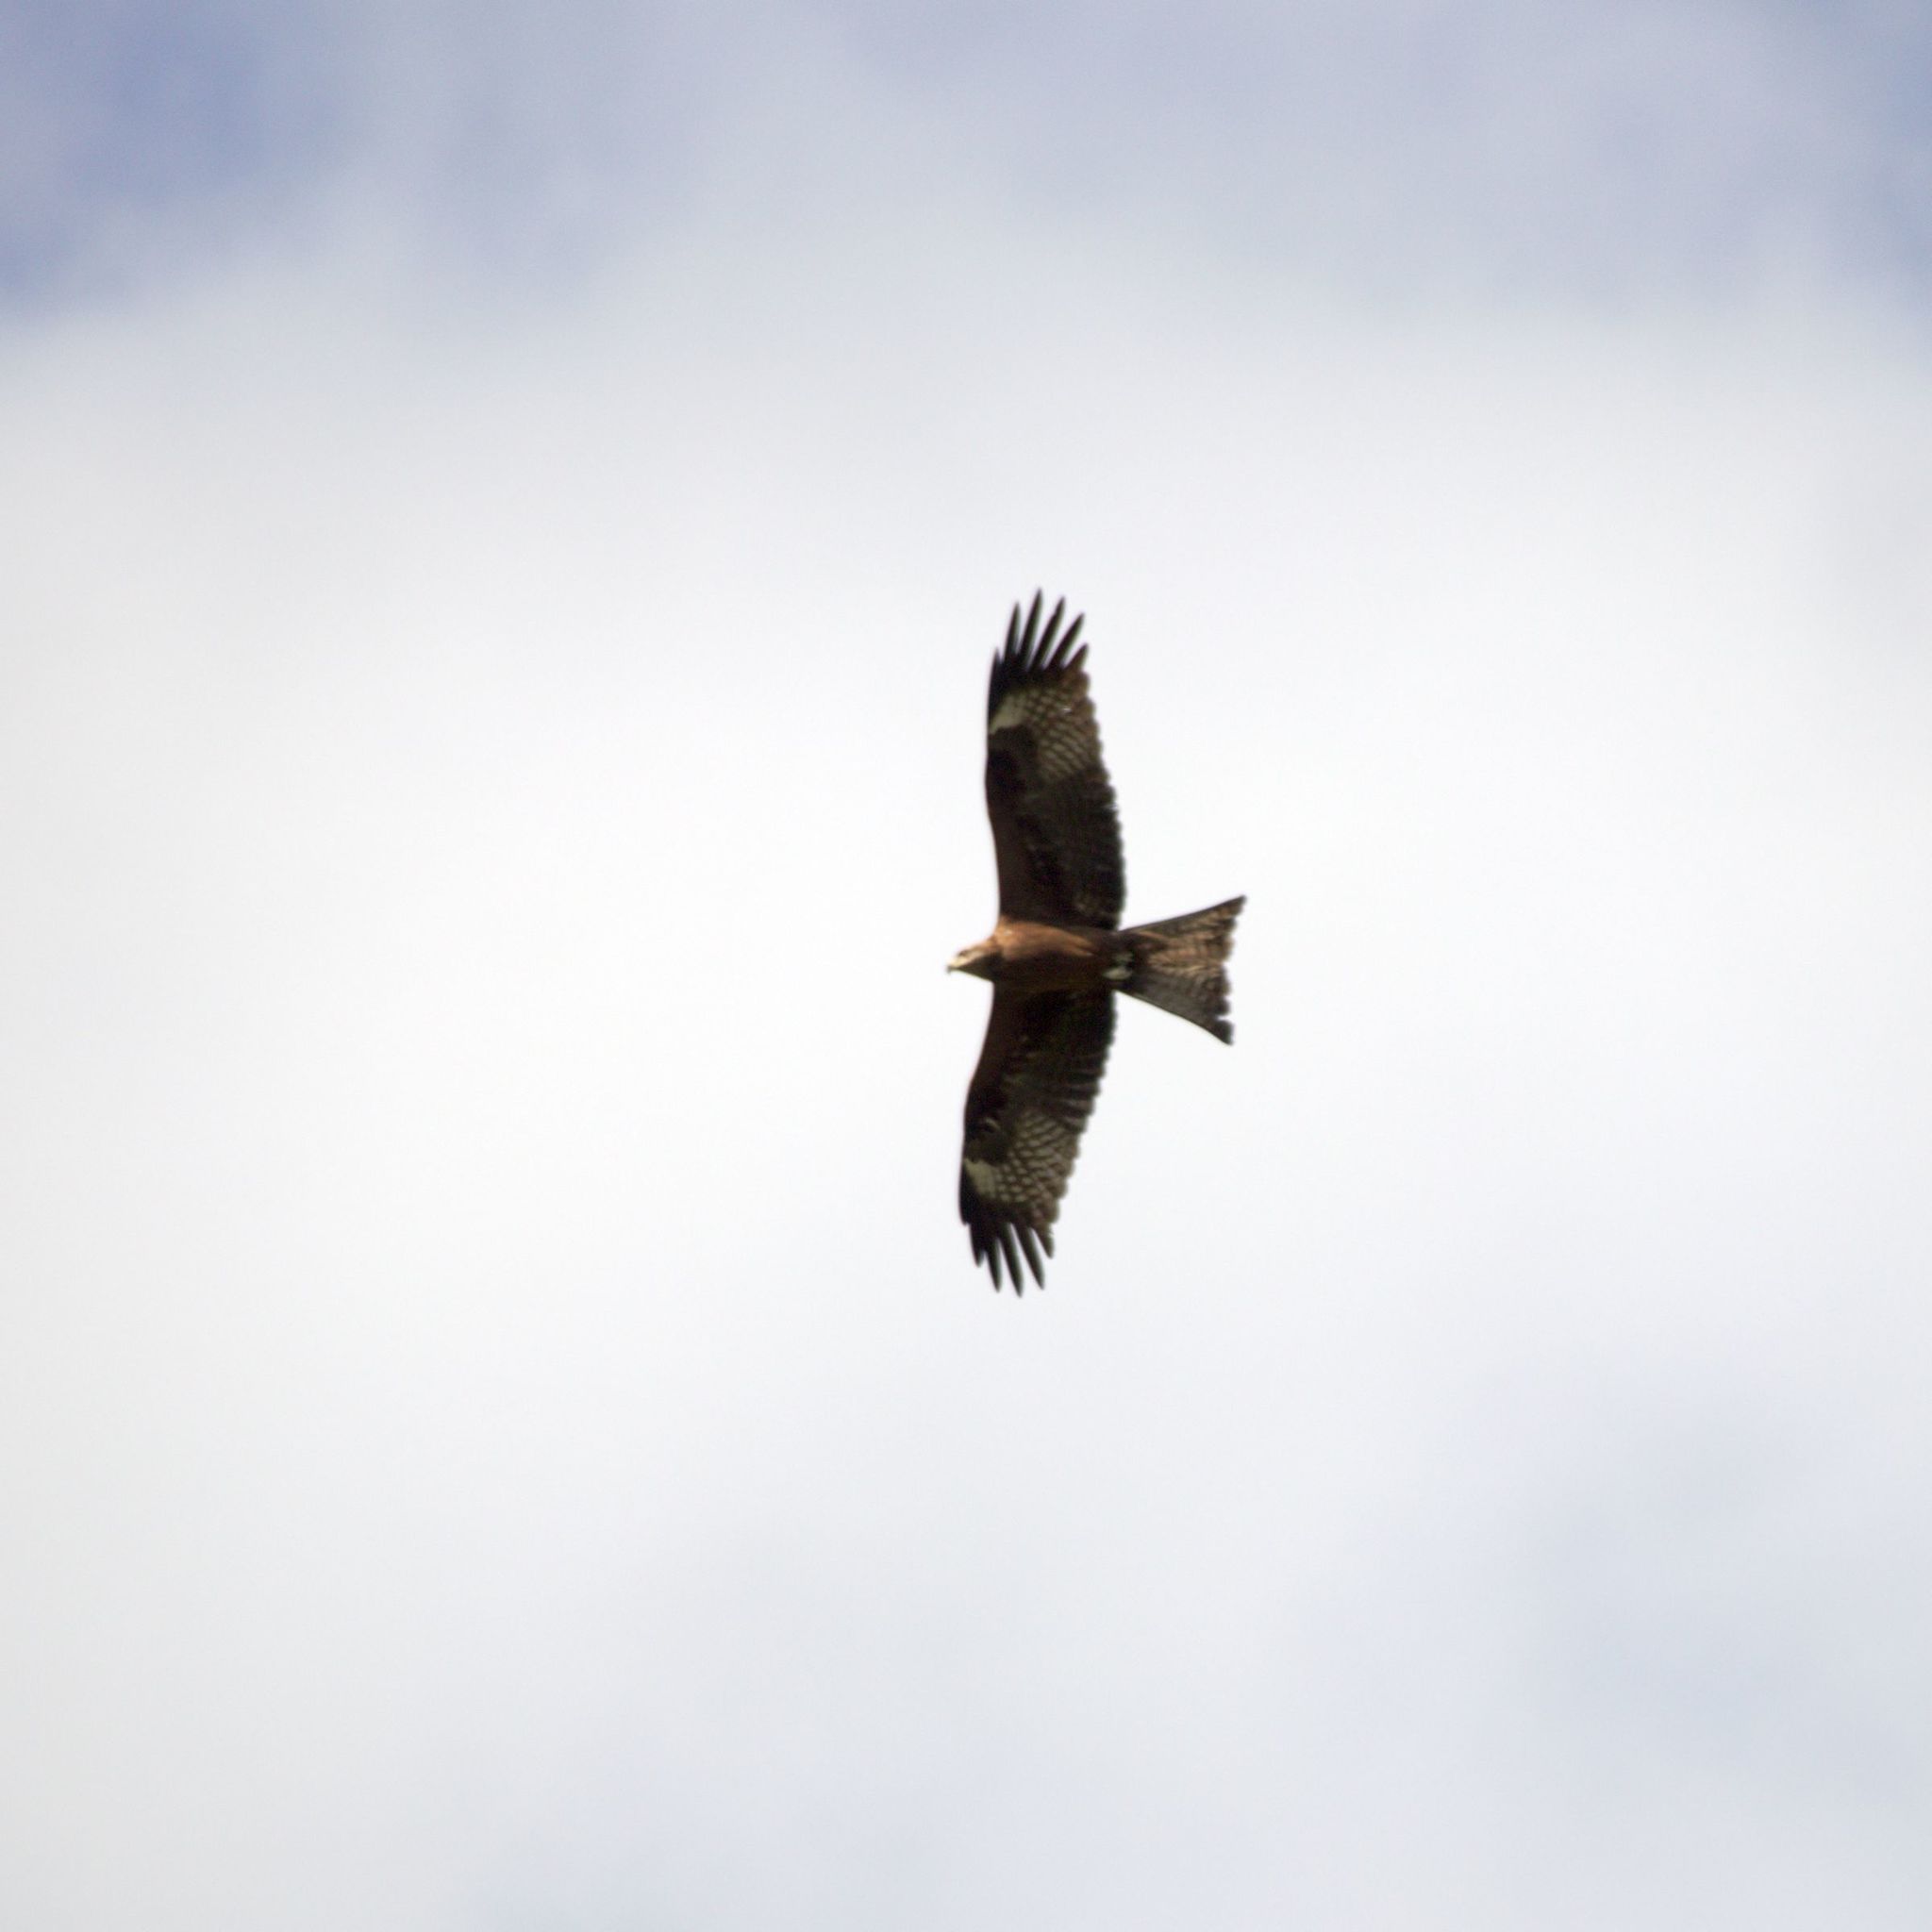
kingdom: Animalia
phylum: Chordata
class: Aves
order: Accipitriformes
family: Accipitridae
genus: Milvus
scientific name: Milvus migrans
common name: Black kite
